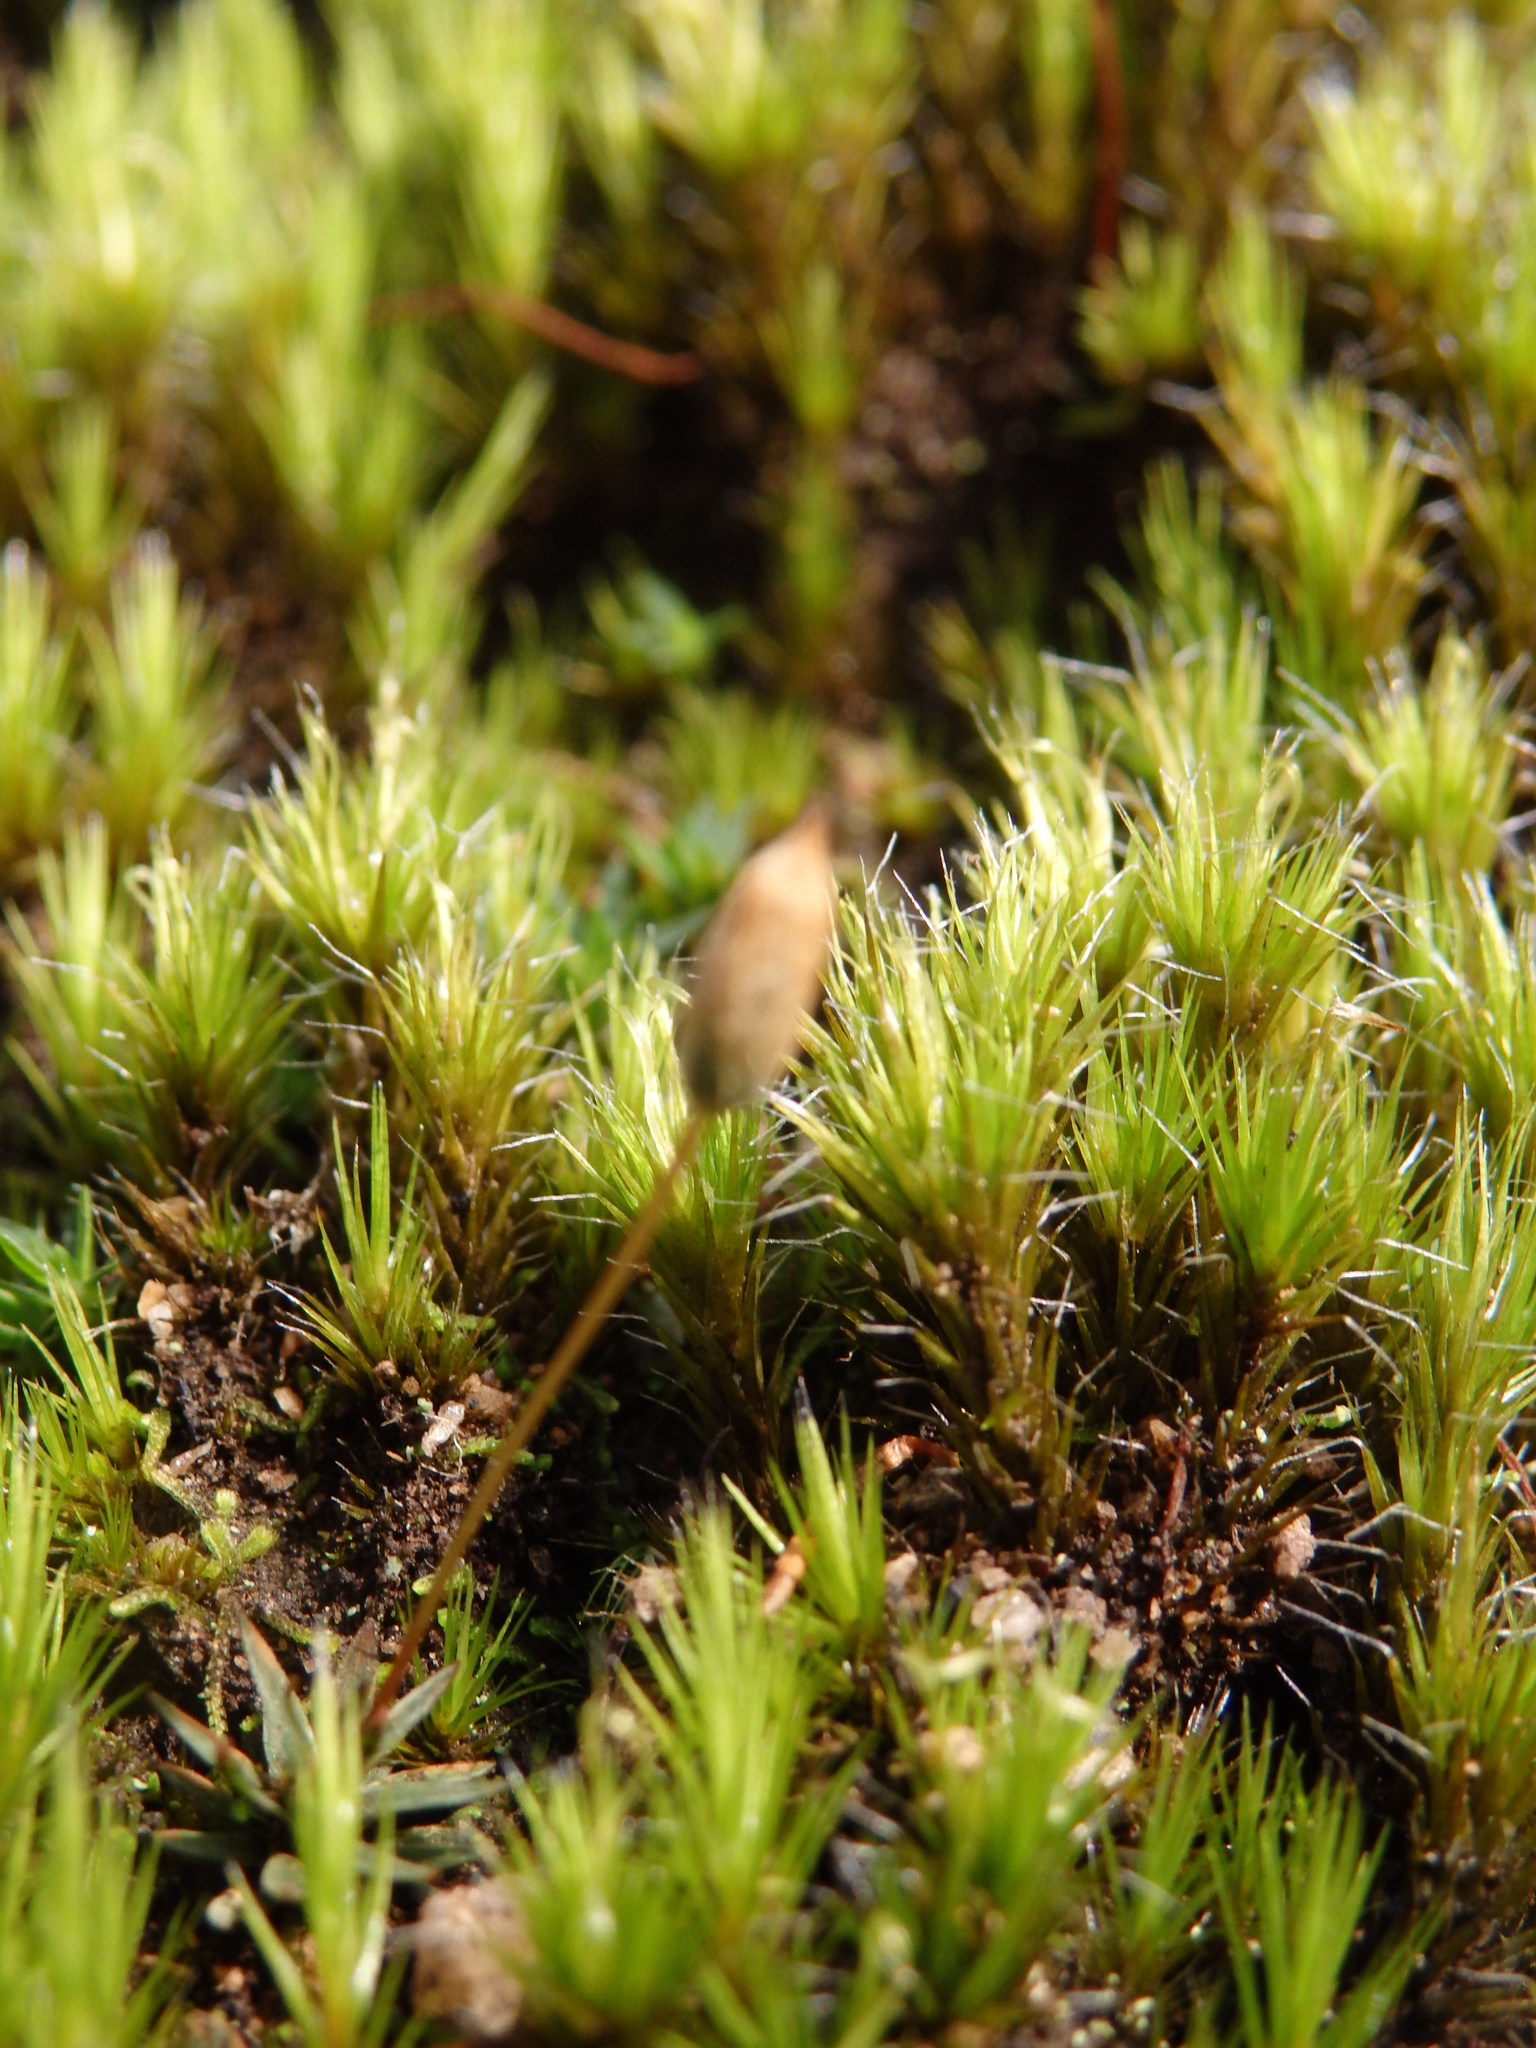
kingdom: Plantae
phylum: Bryophyta
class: Bryopsida
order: Dicranales
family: Leucobryaceae
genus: Campylopus
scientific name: Campylopus introflexus
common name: Heath star moss
